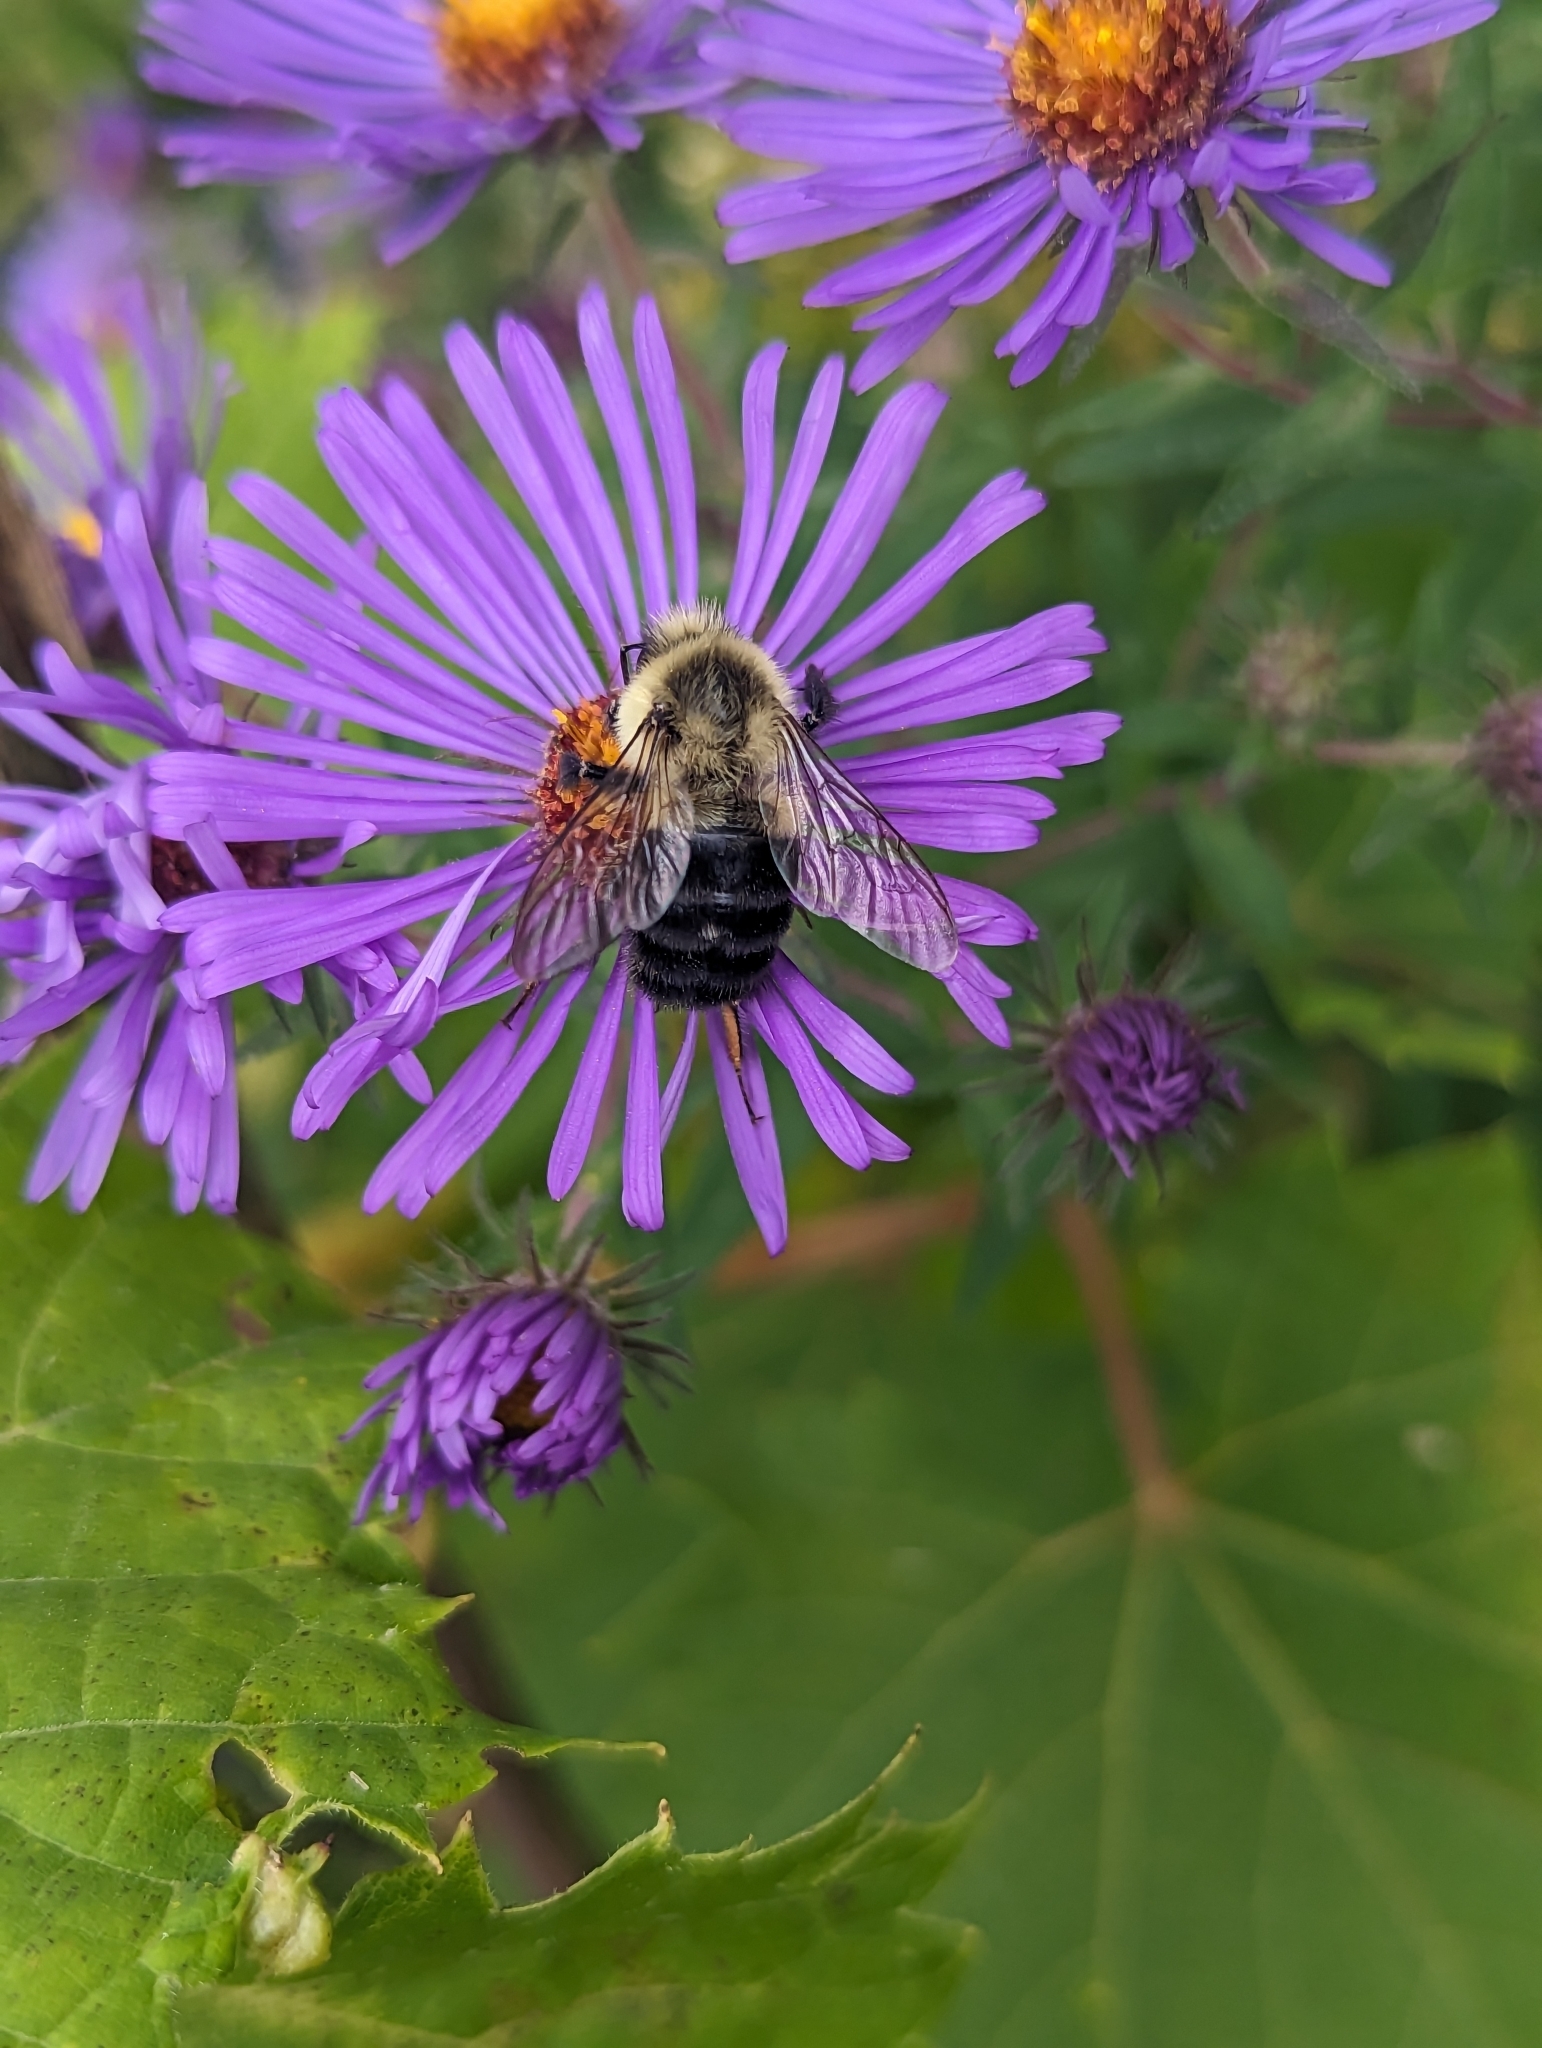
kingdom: Animalia
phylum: Arthropoda
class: Insecta
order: Hymenoptera
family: Apidae
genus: Bombus
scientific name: Bombus impatiens
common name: Common eastern bumble bee
